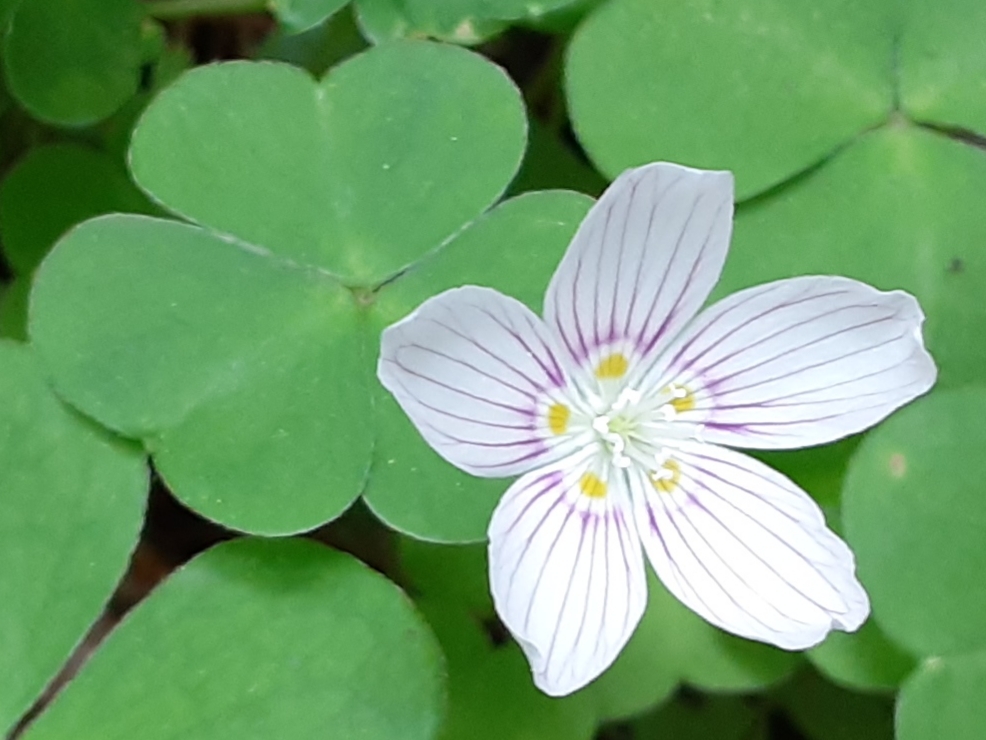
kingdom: Plantae
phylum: Tracheophyta
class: Magnoliopsida
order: Oxalidales
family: Oxalidaceae
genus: Oxalis
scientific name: Oxalis montana
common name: American wood-sorrel
